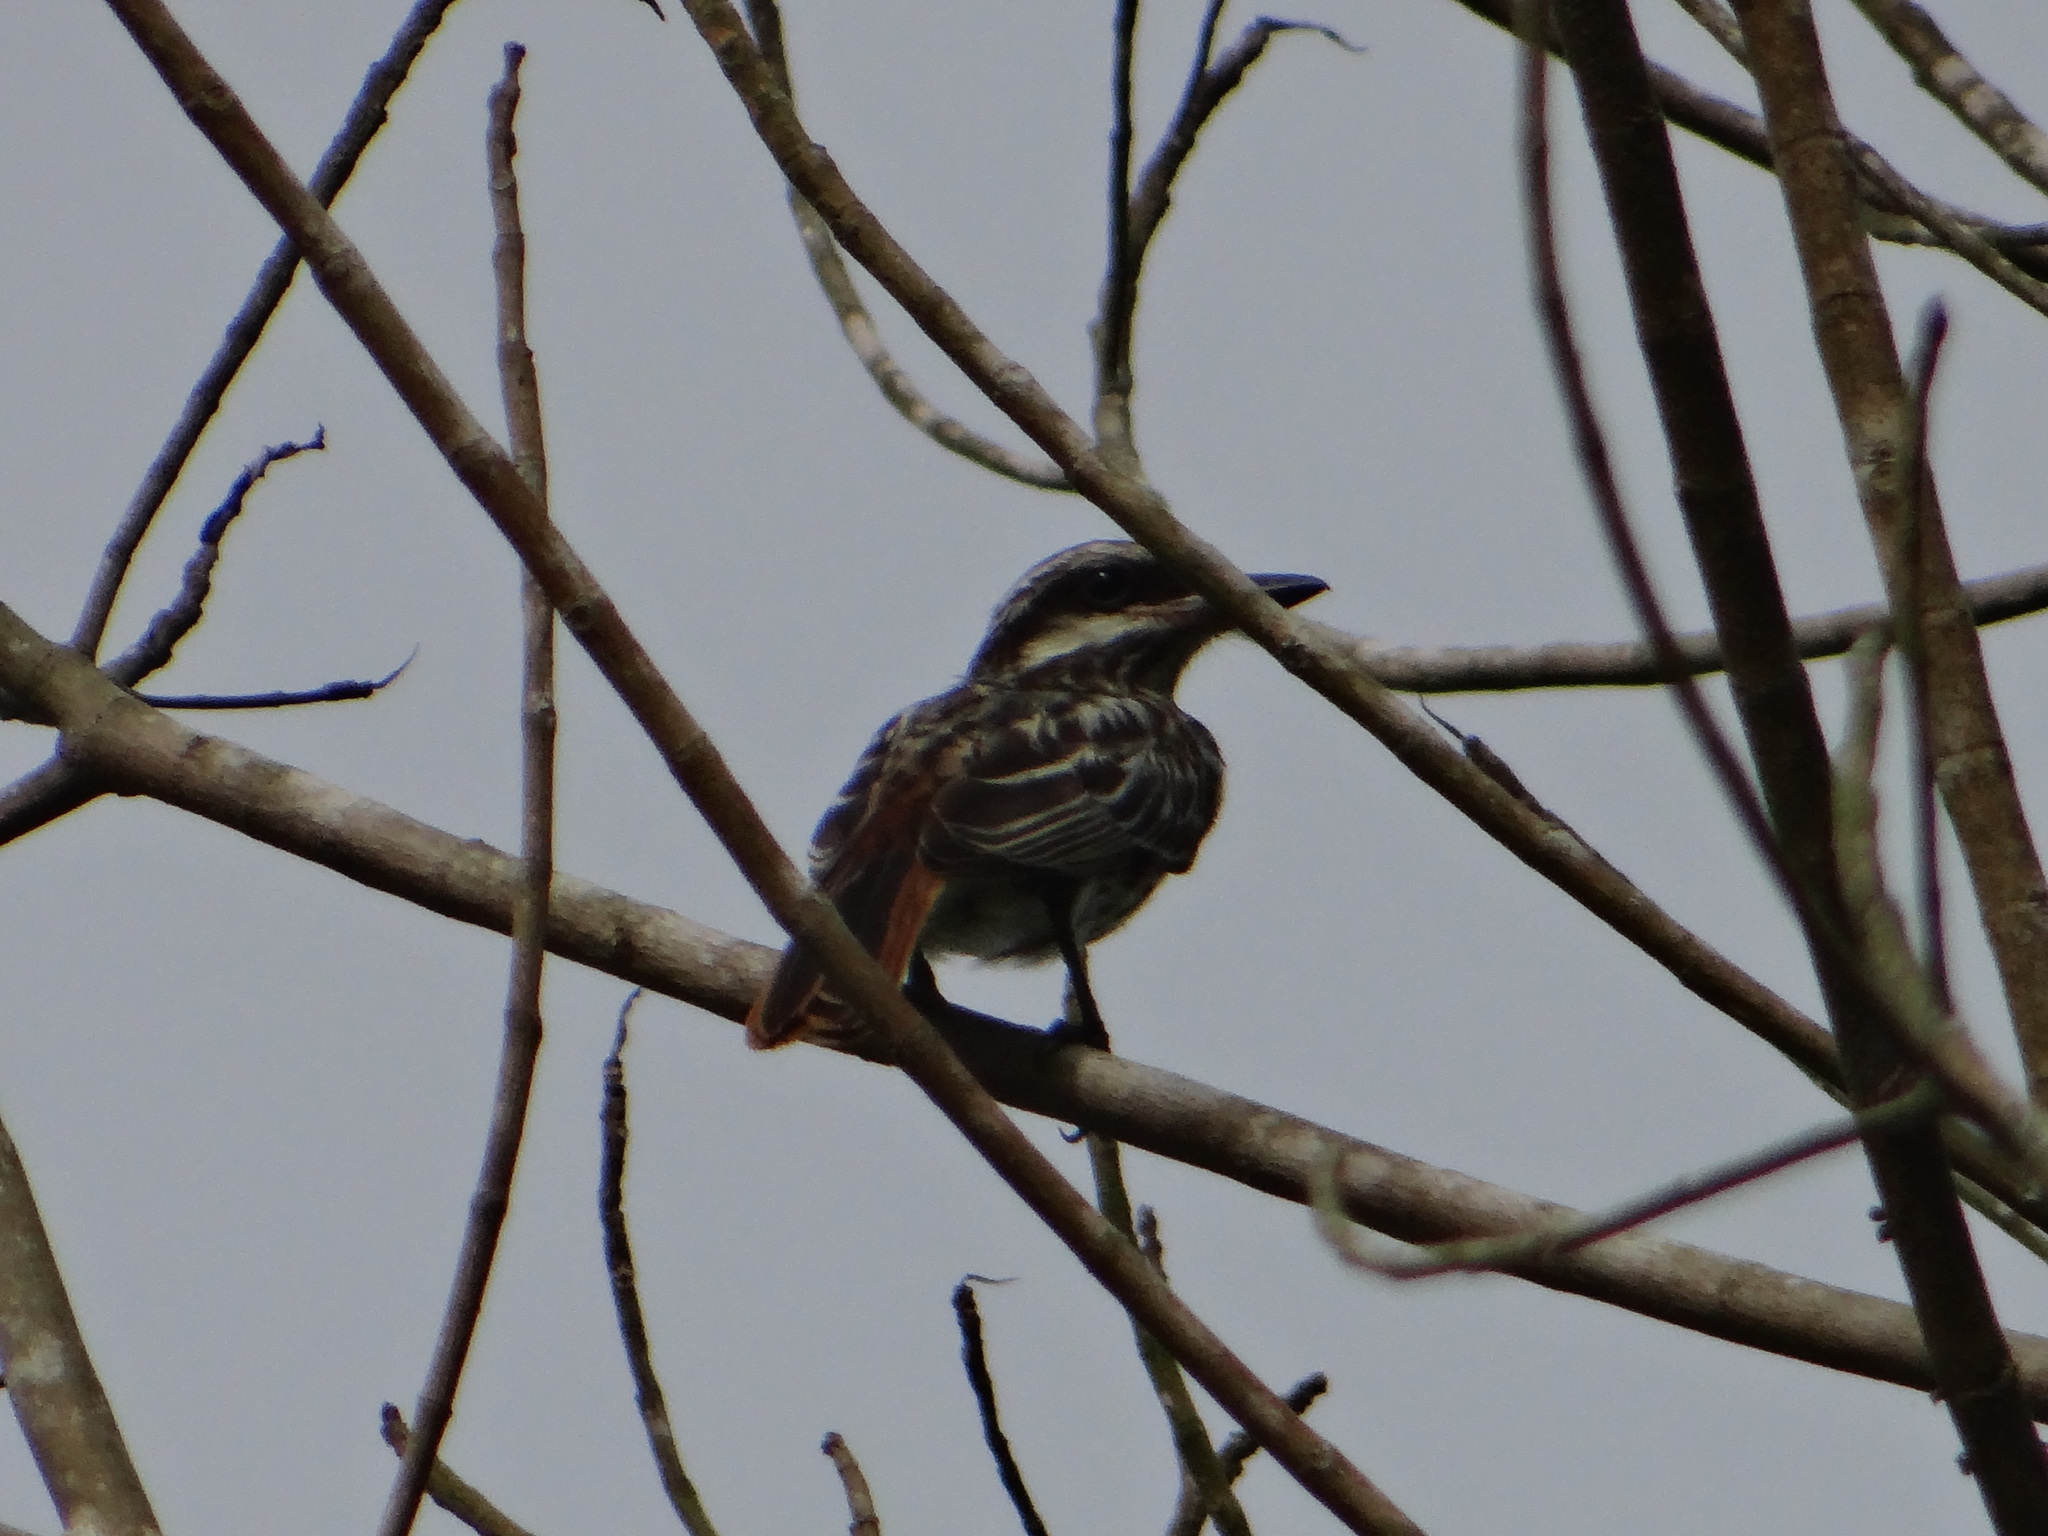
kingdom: Animalia
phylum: Chordata
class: Aves
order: Passeriformes
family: Tyrannidae
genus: Myiodynastes
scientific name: Myiodynastes maculatus
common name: Streaked flycatcher
